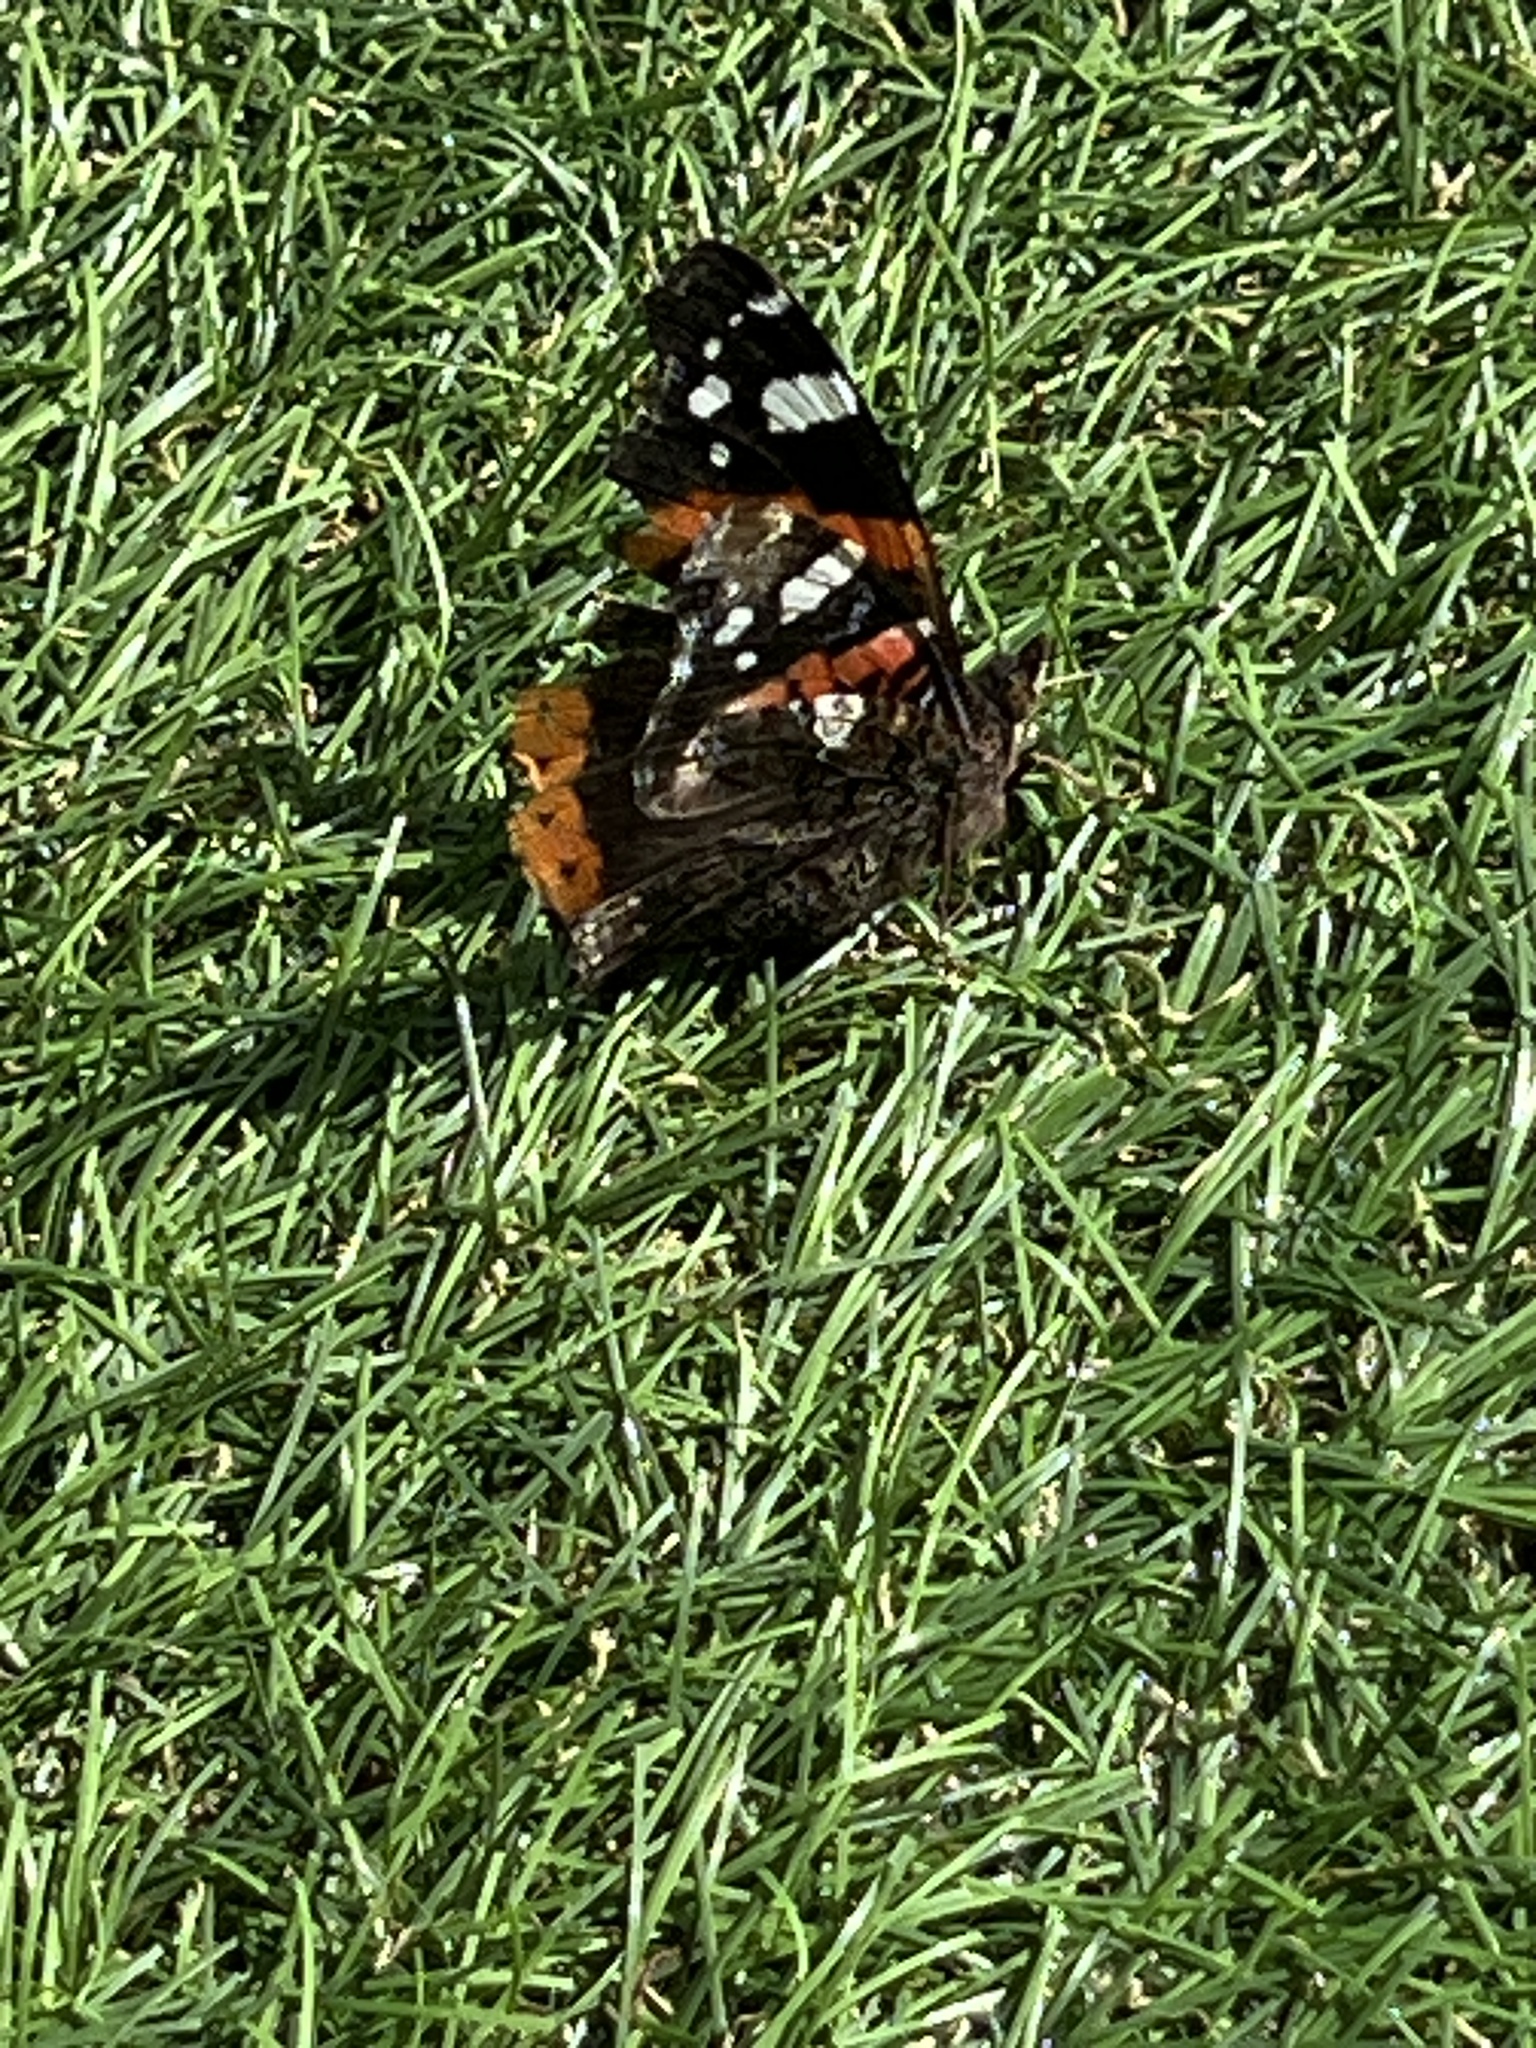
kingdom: Animalia
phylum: Arthropoda
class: Insecta
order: Lepidoptera
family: Nymphalidae
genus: Vanessa
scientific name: Vanessa atalanta
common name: Red admiral
